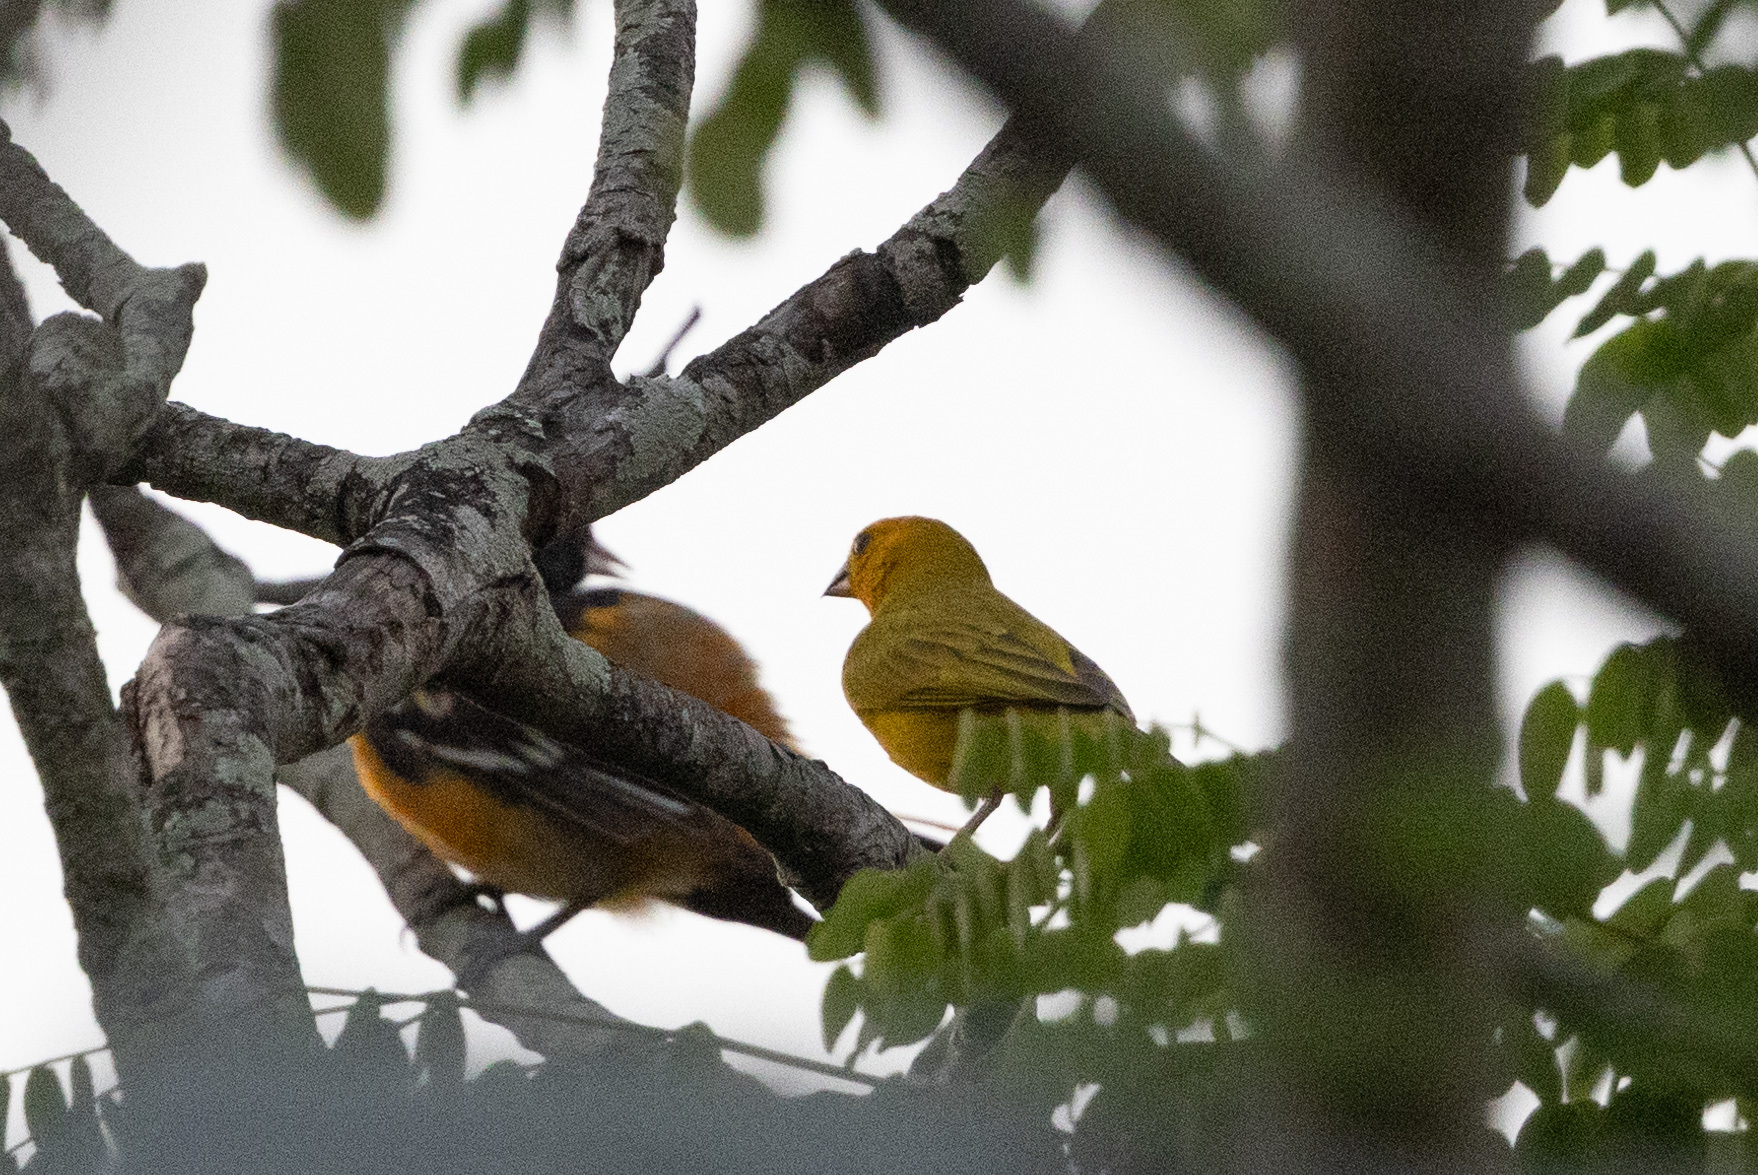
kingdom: Animalia
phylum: Chordata
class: Aves
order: Passeriformes
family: Thraupidae
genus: Sicalis
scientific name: Sicalis flaveola
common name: Saffron finch
